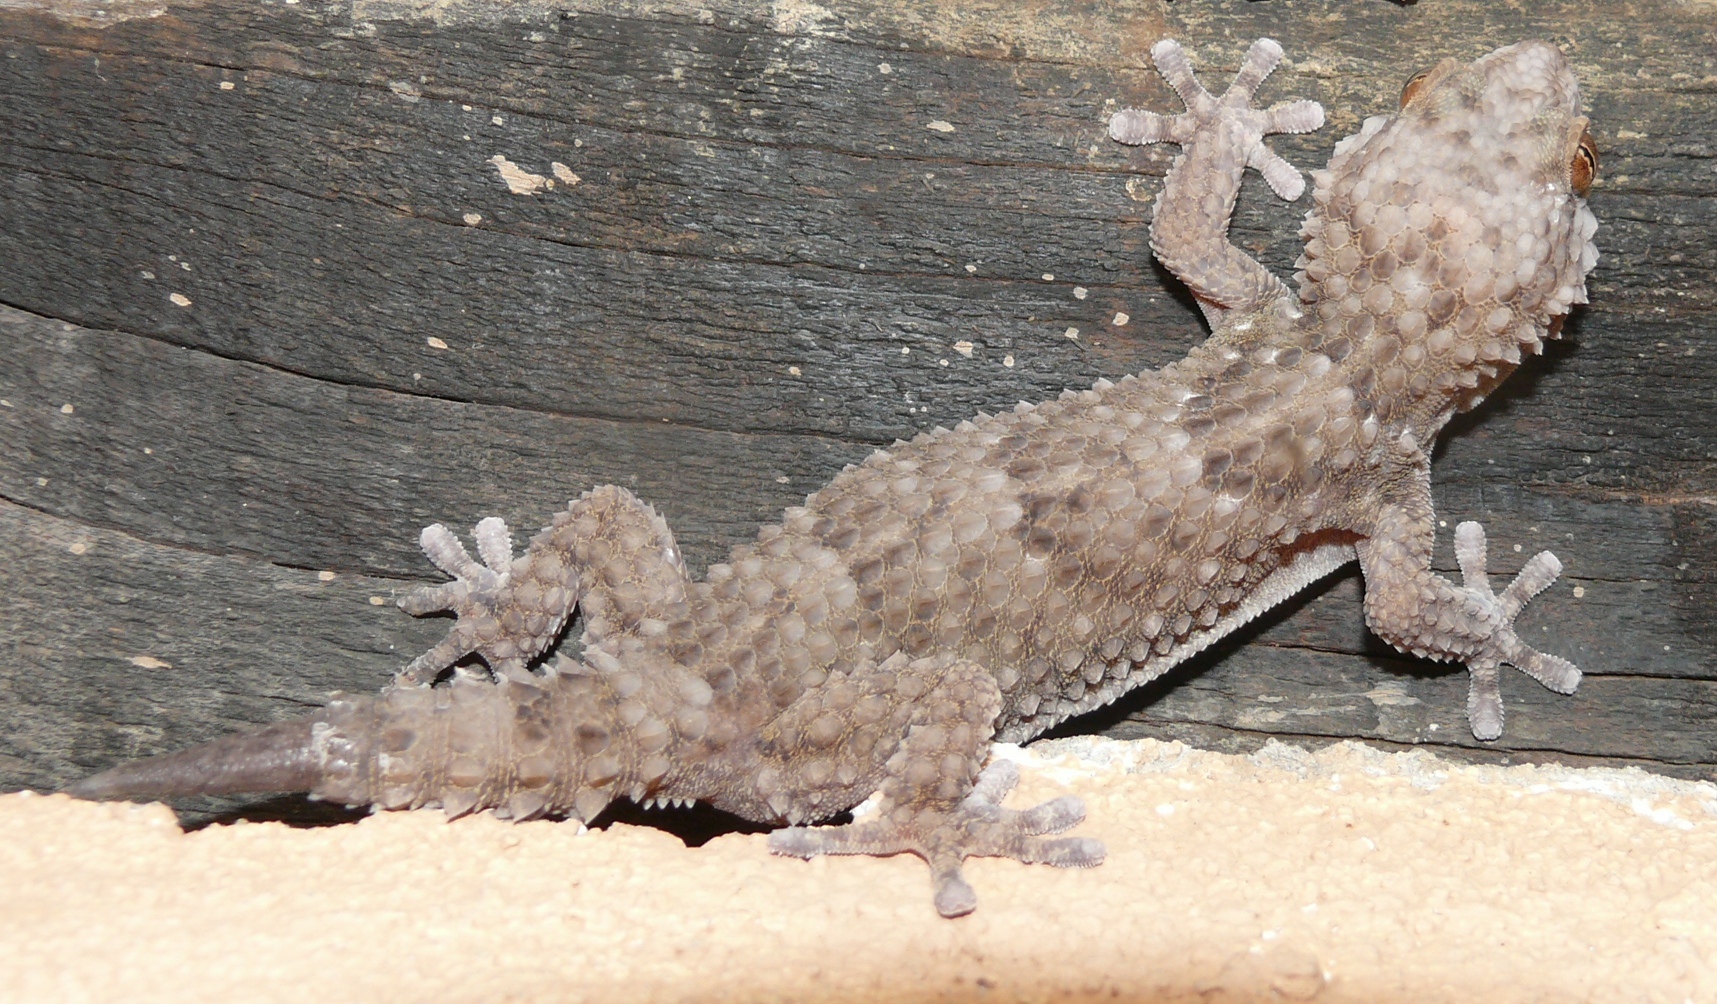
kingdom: Animalia
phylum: Chordata
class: Squamata
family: Gekkonidae
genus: Chondrodactylus
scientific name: Chondrodactylus bibronii
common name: Bibron's gecko
